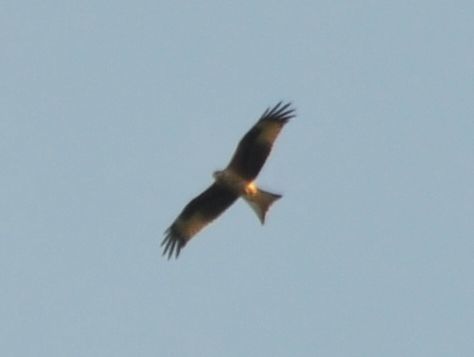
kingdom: Animalia
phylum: Chordata
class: Aves
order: Accipitriformes
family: Accipitridae
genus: Milvus
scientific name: Milvus milvus
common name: Red kite
